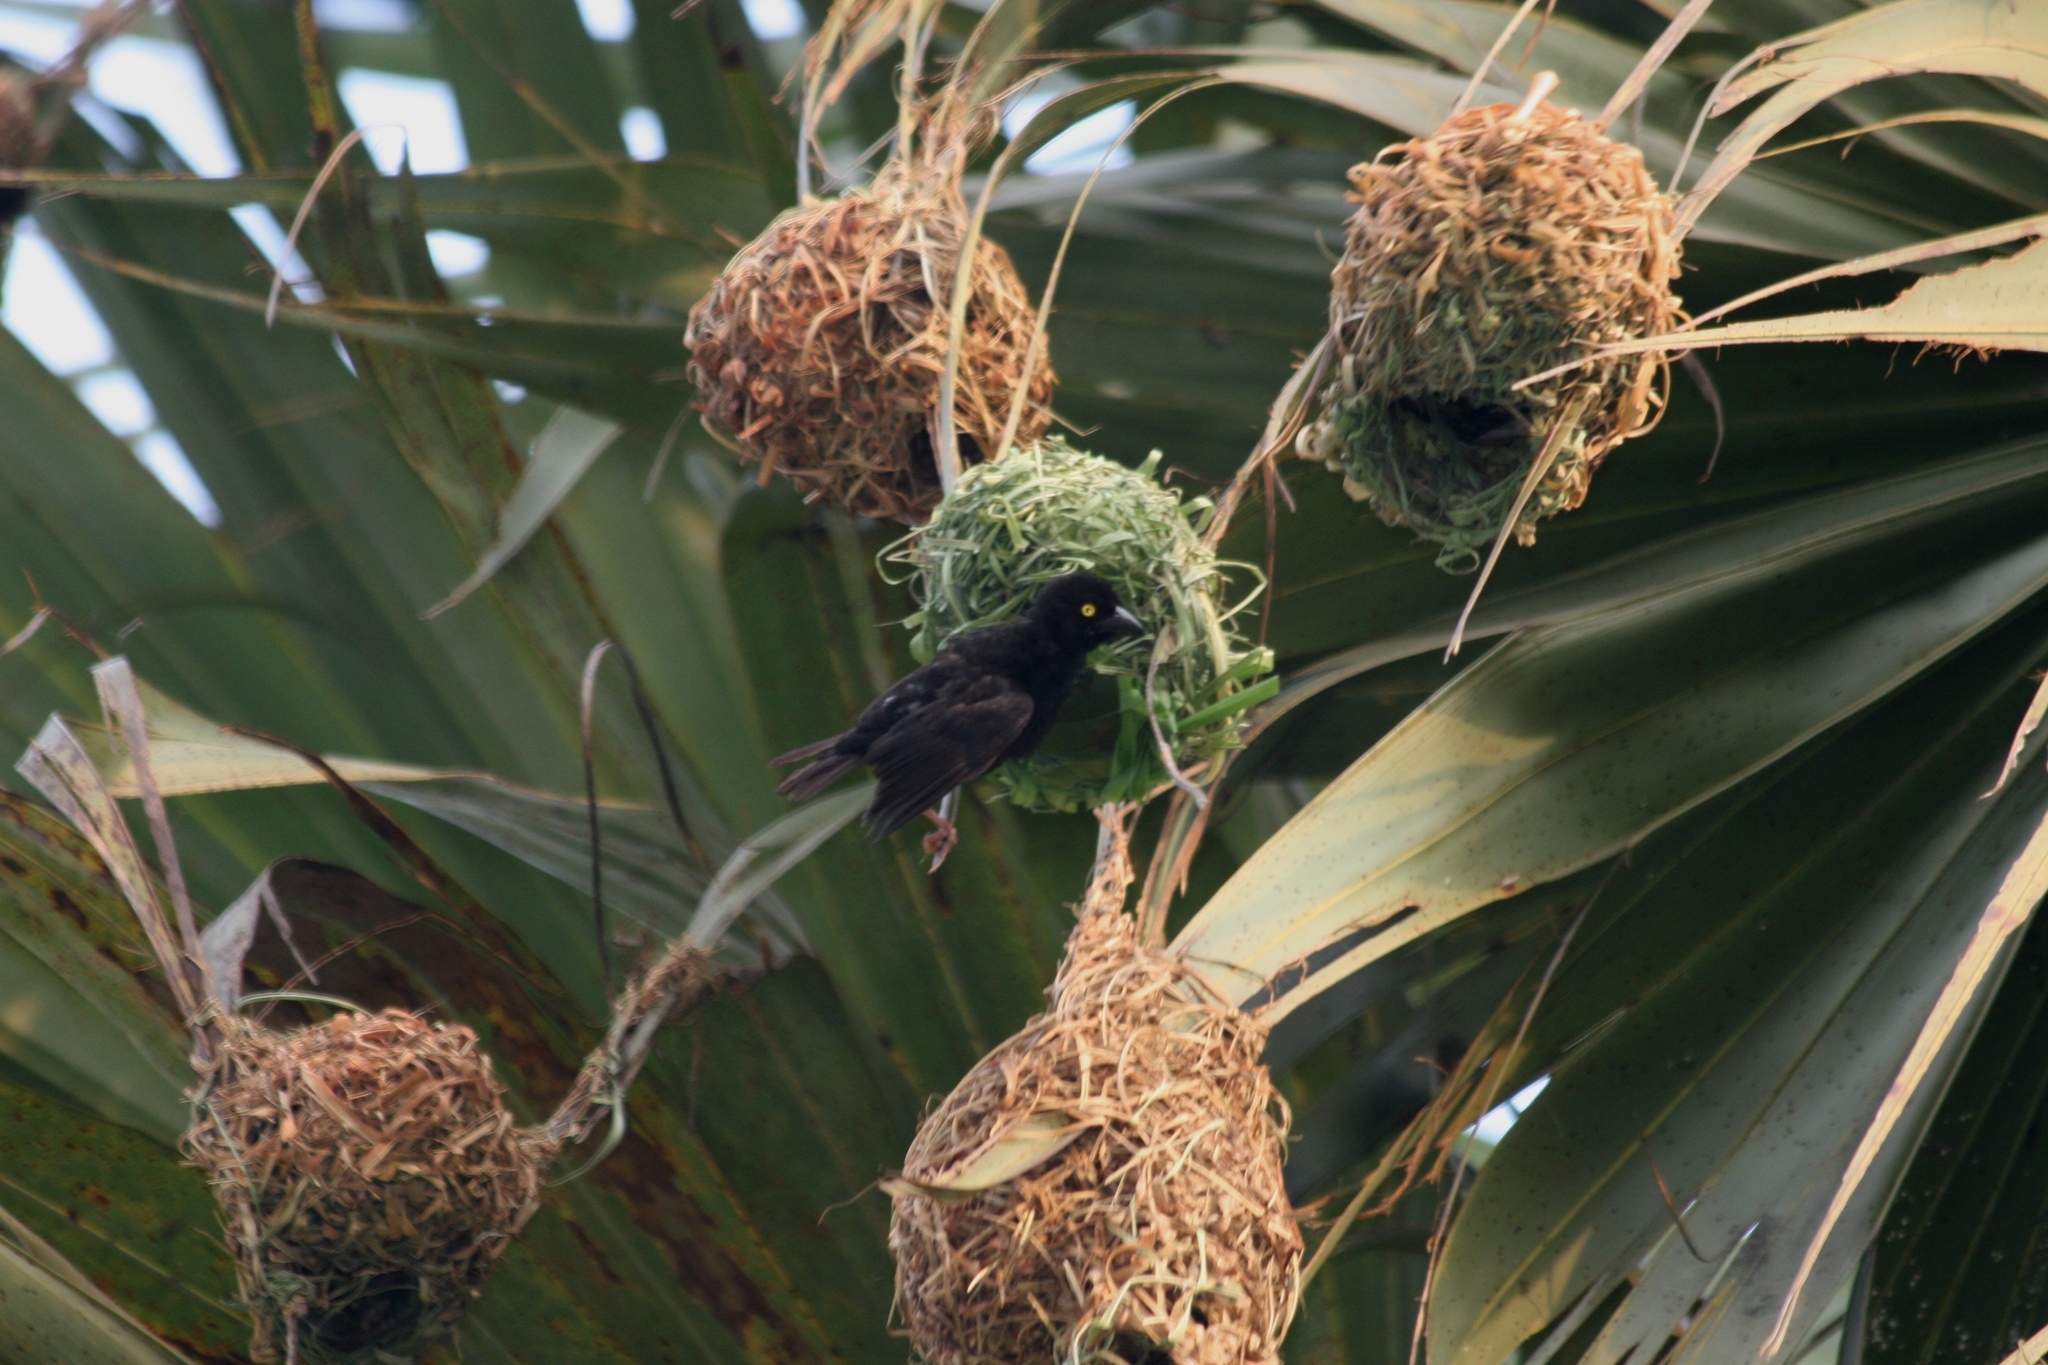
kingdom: Animalia
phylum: Chordata
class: Aves
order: Passeriformes
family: Ploceidae
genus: Ploceus
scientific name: Ploceus nigerrimus
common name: Vieillot's black weaver
